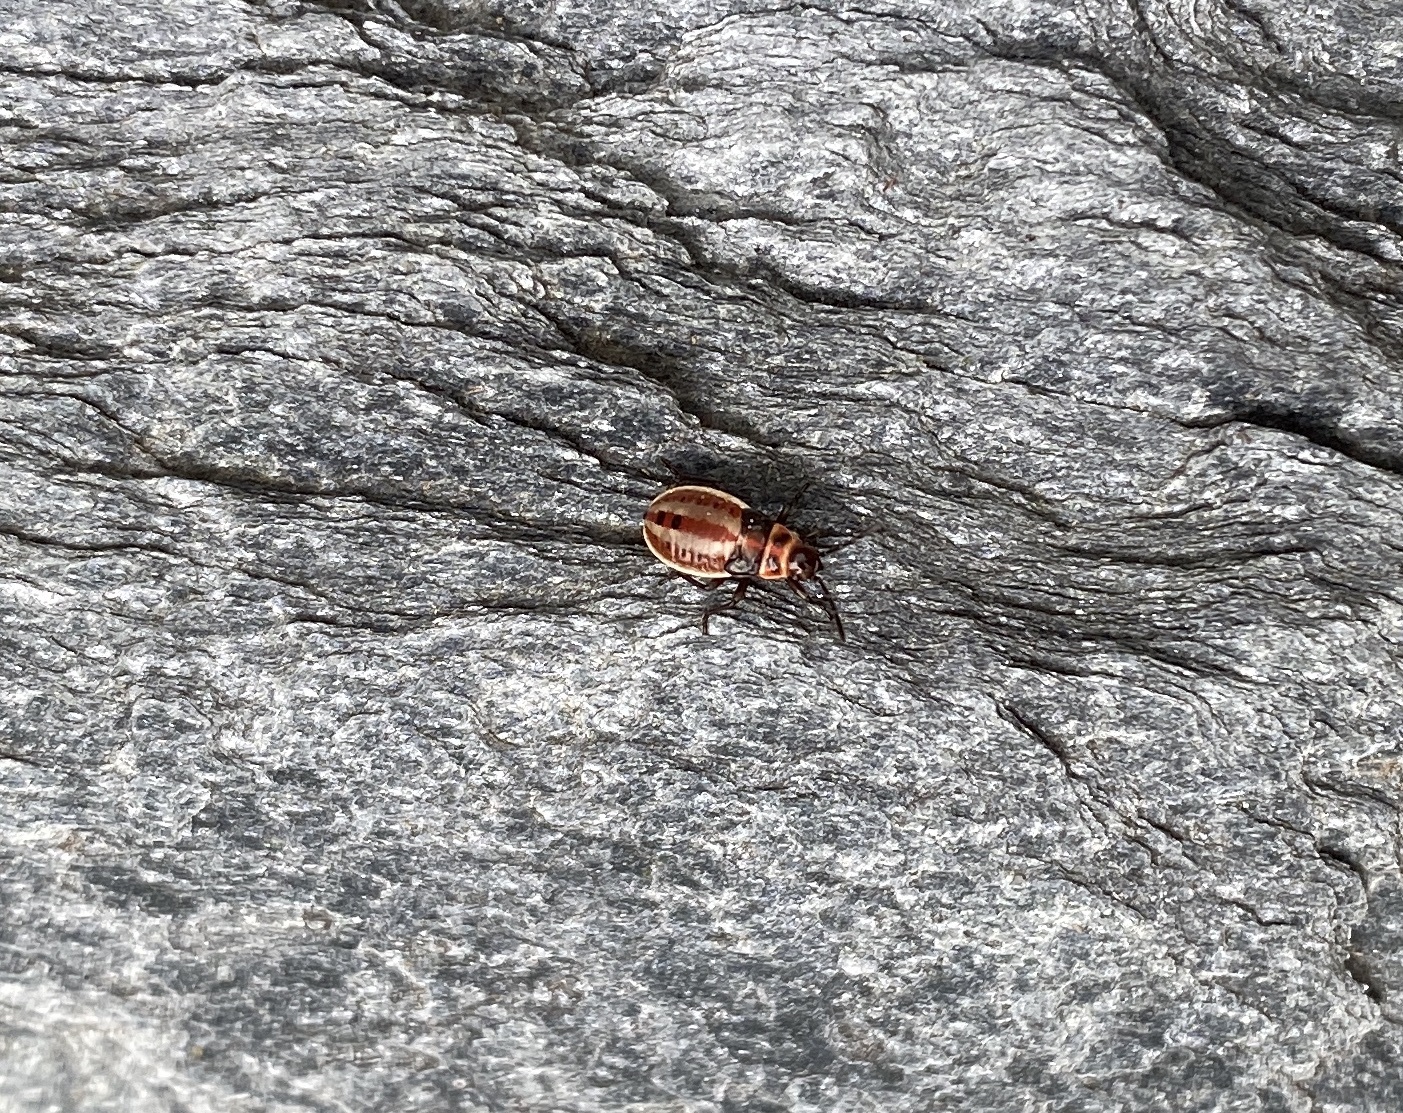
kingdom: Animalia
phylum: Arthropoda
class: Insecta
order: Hemiptera
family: Lygaeidae
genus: Lygaeus
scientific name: Lygaeus kalmii
